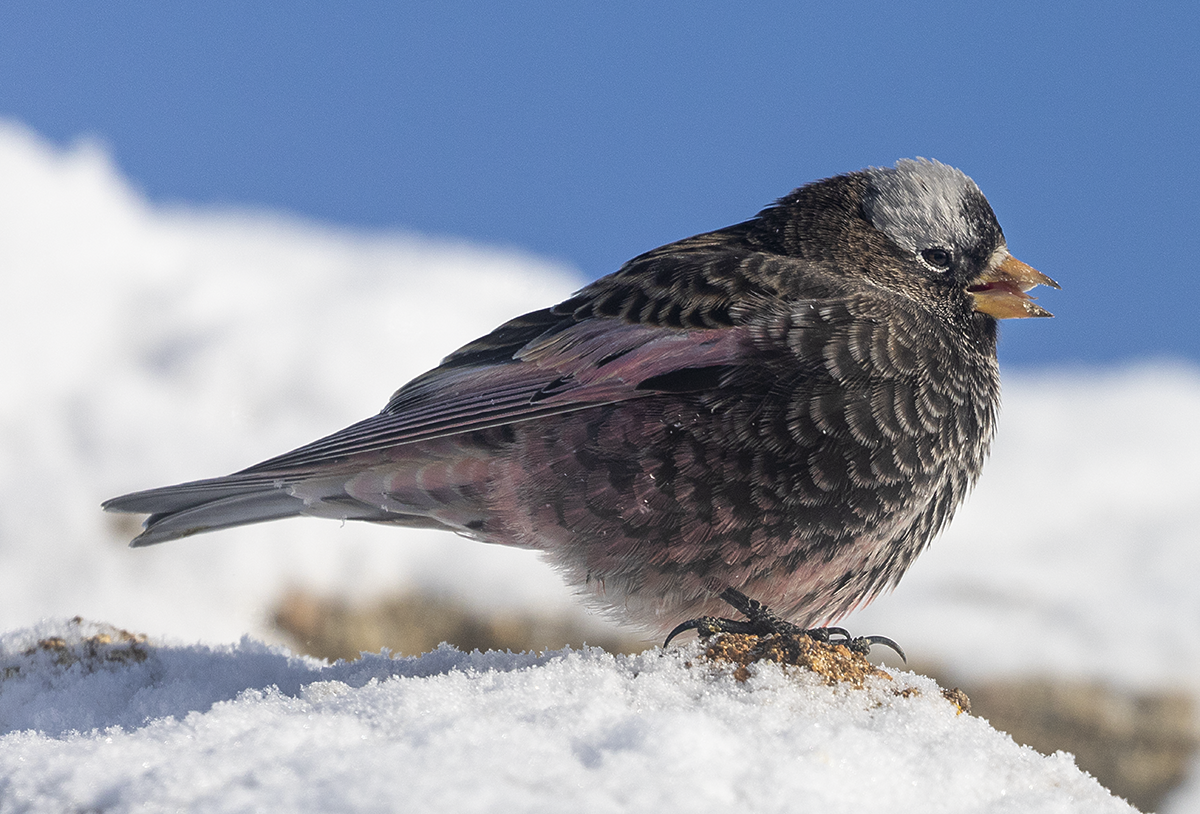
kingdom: Animalia
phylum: Chordata
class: Aves
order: Passeriformes
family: Fringillidae
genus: Leucosticte
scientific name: Leucosticte atrata
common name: Black rosy-finch
